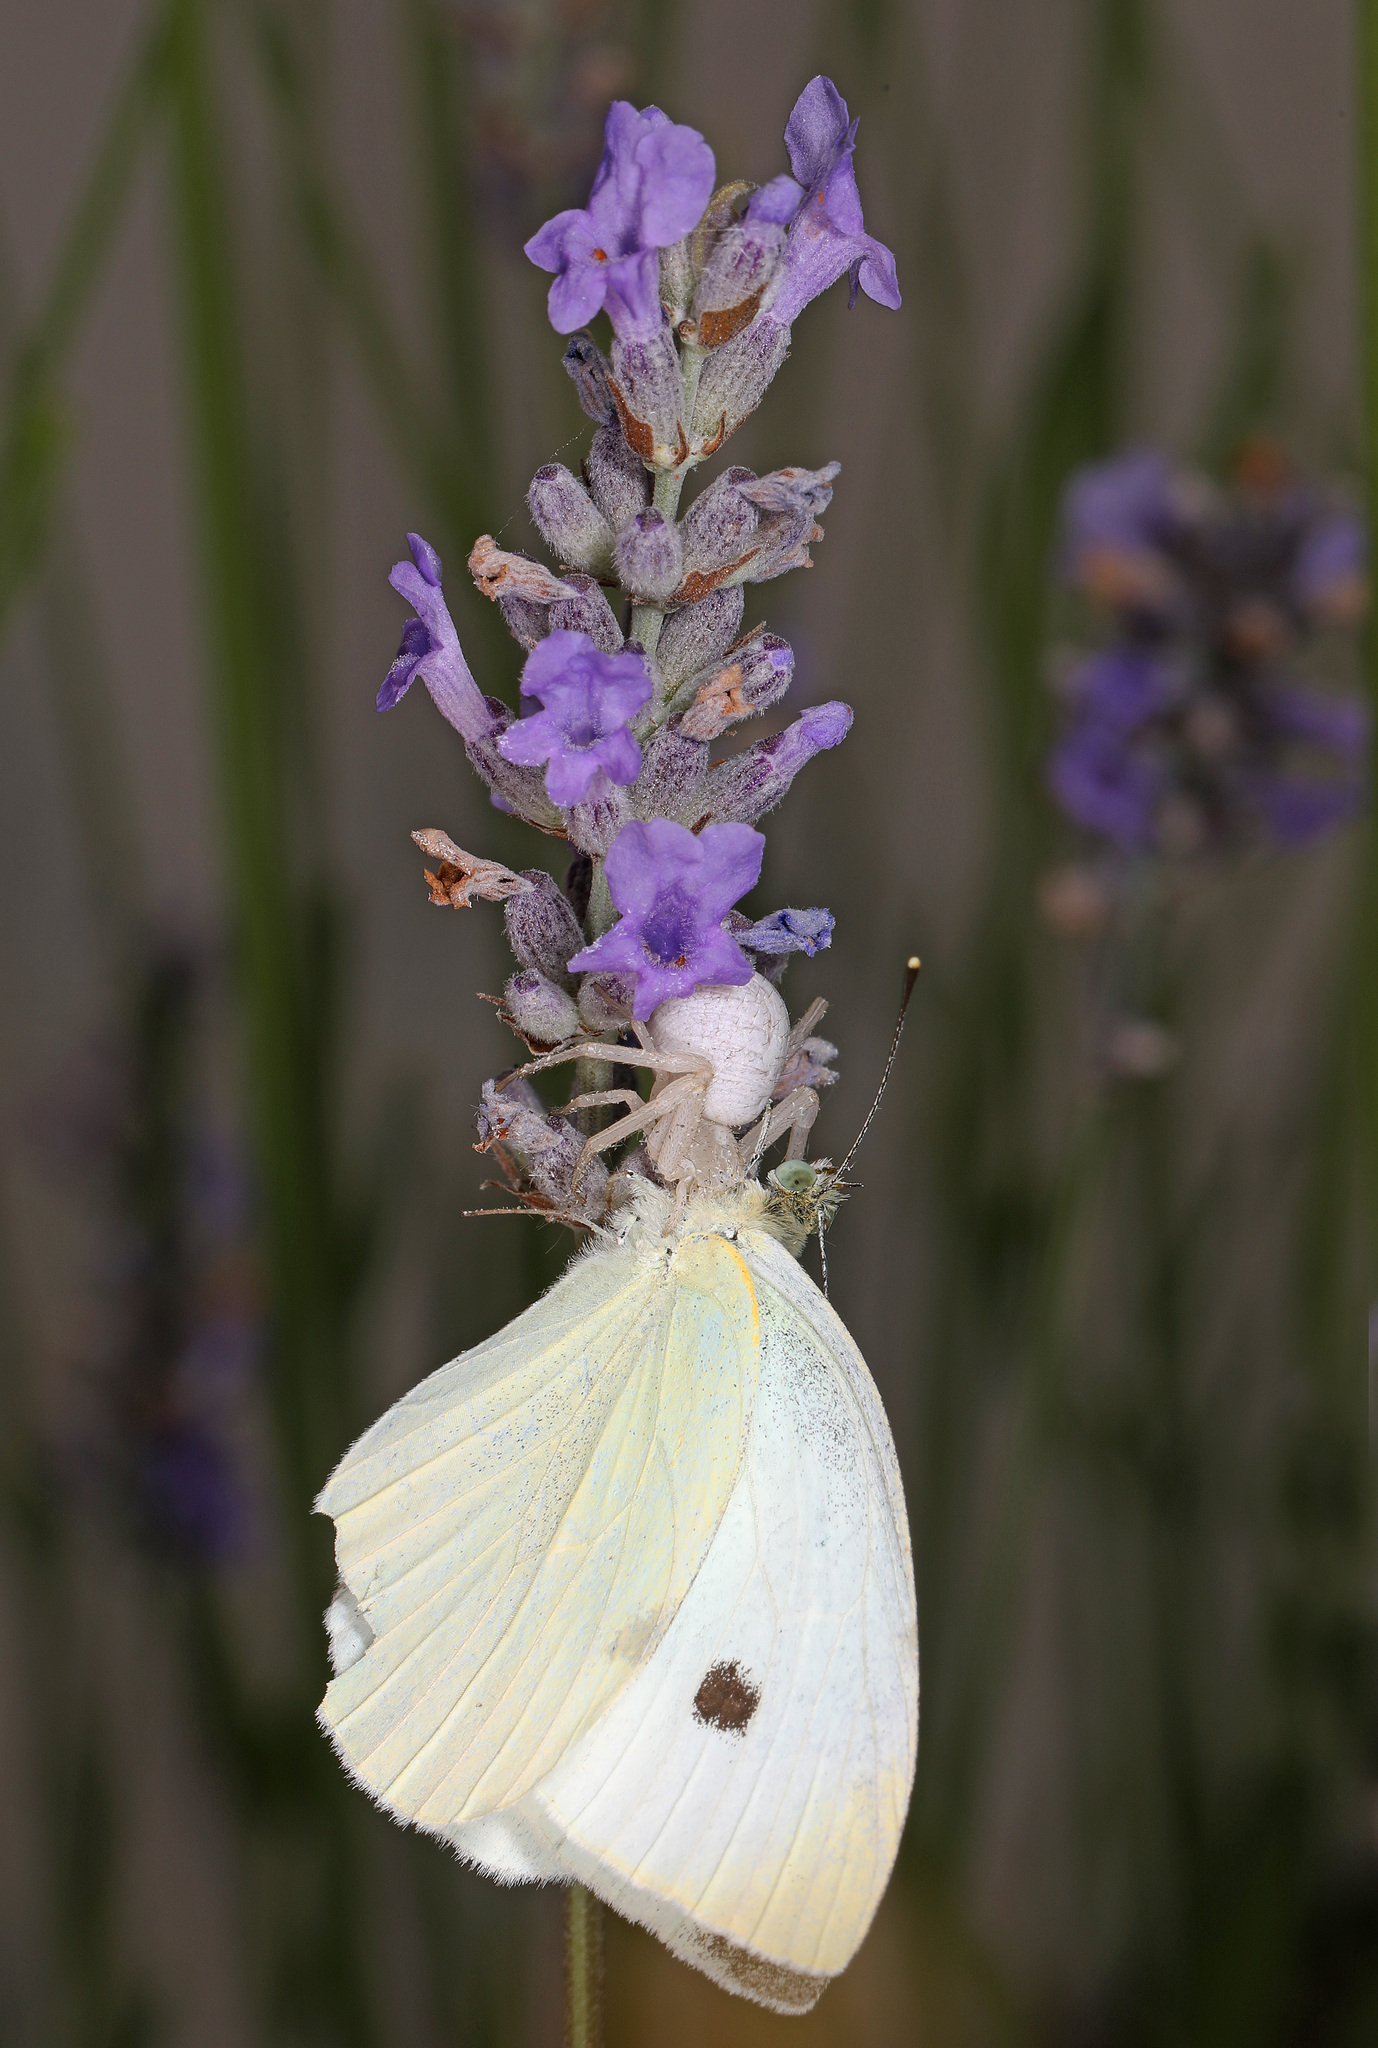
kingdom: Animalia
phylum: Arthropoda
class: Insecta
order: Lepidoptera
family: Pieridae
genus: Pieris
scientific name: Pieris rapae
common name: Small white
